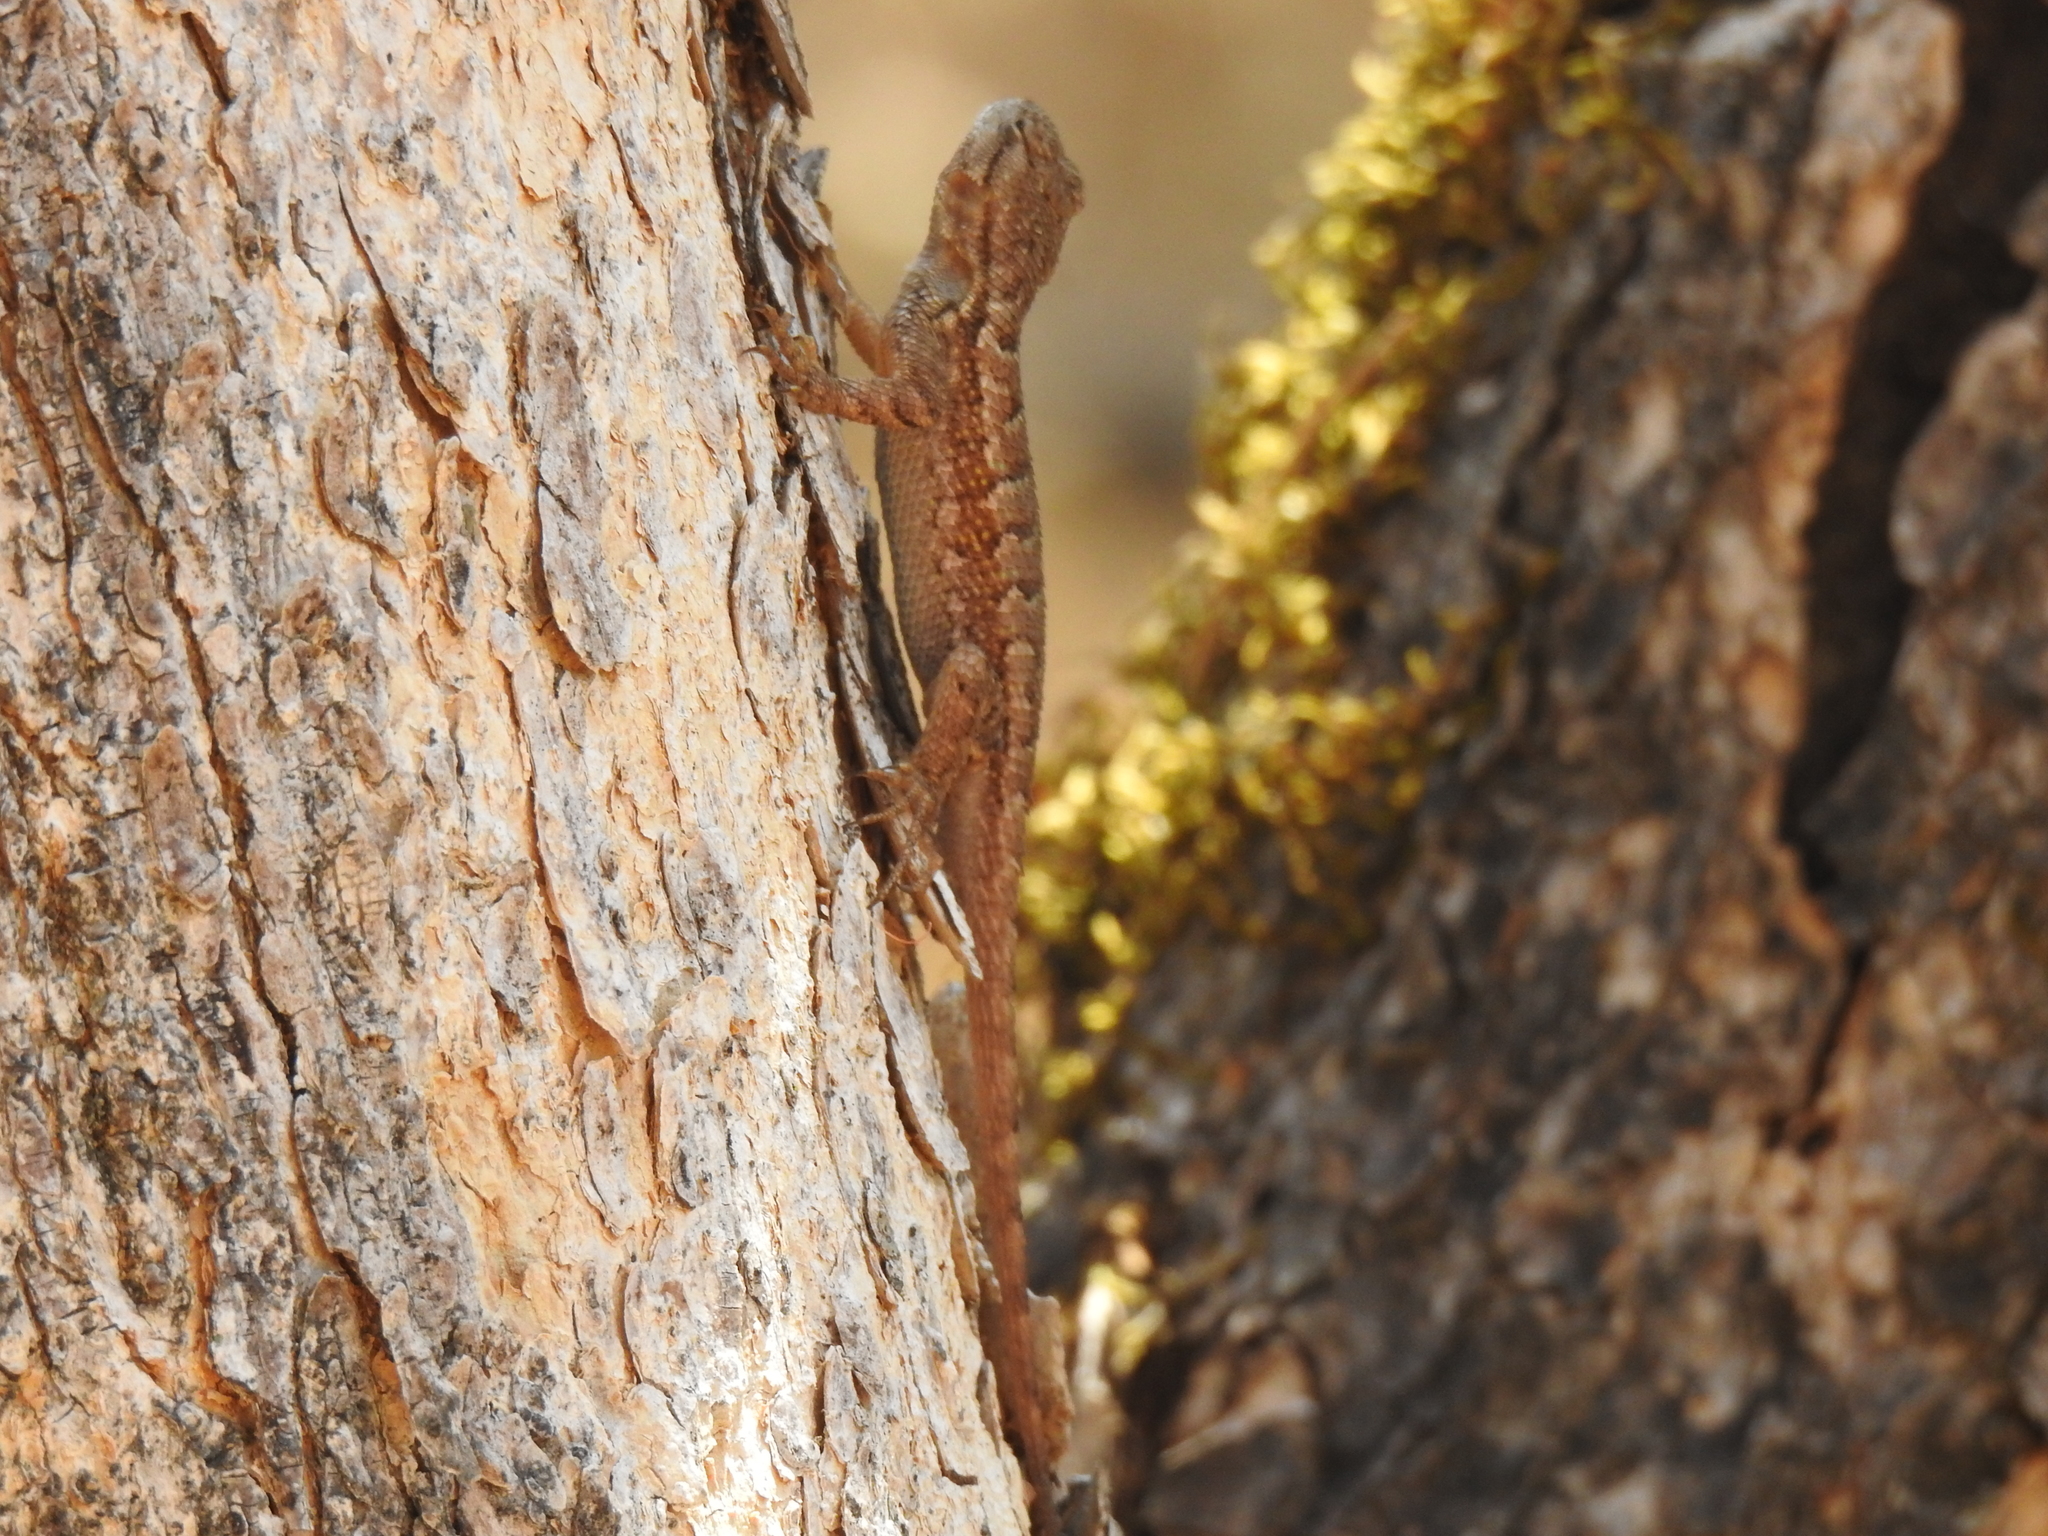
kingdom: Animalia
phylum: Chordata
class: Squamata
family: Phrynosomatidae
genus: Sceloporus
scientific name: Sceloporus occidentalis
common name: Western fence lizard
